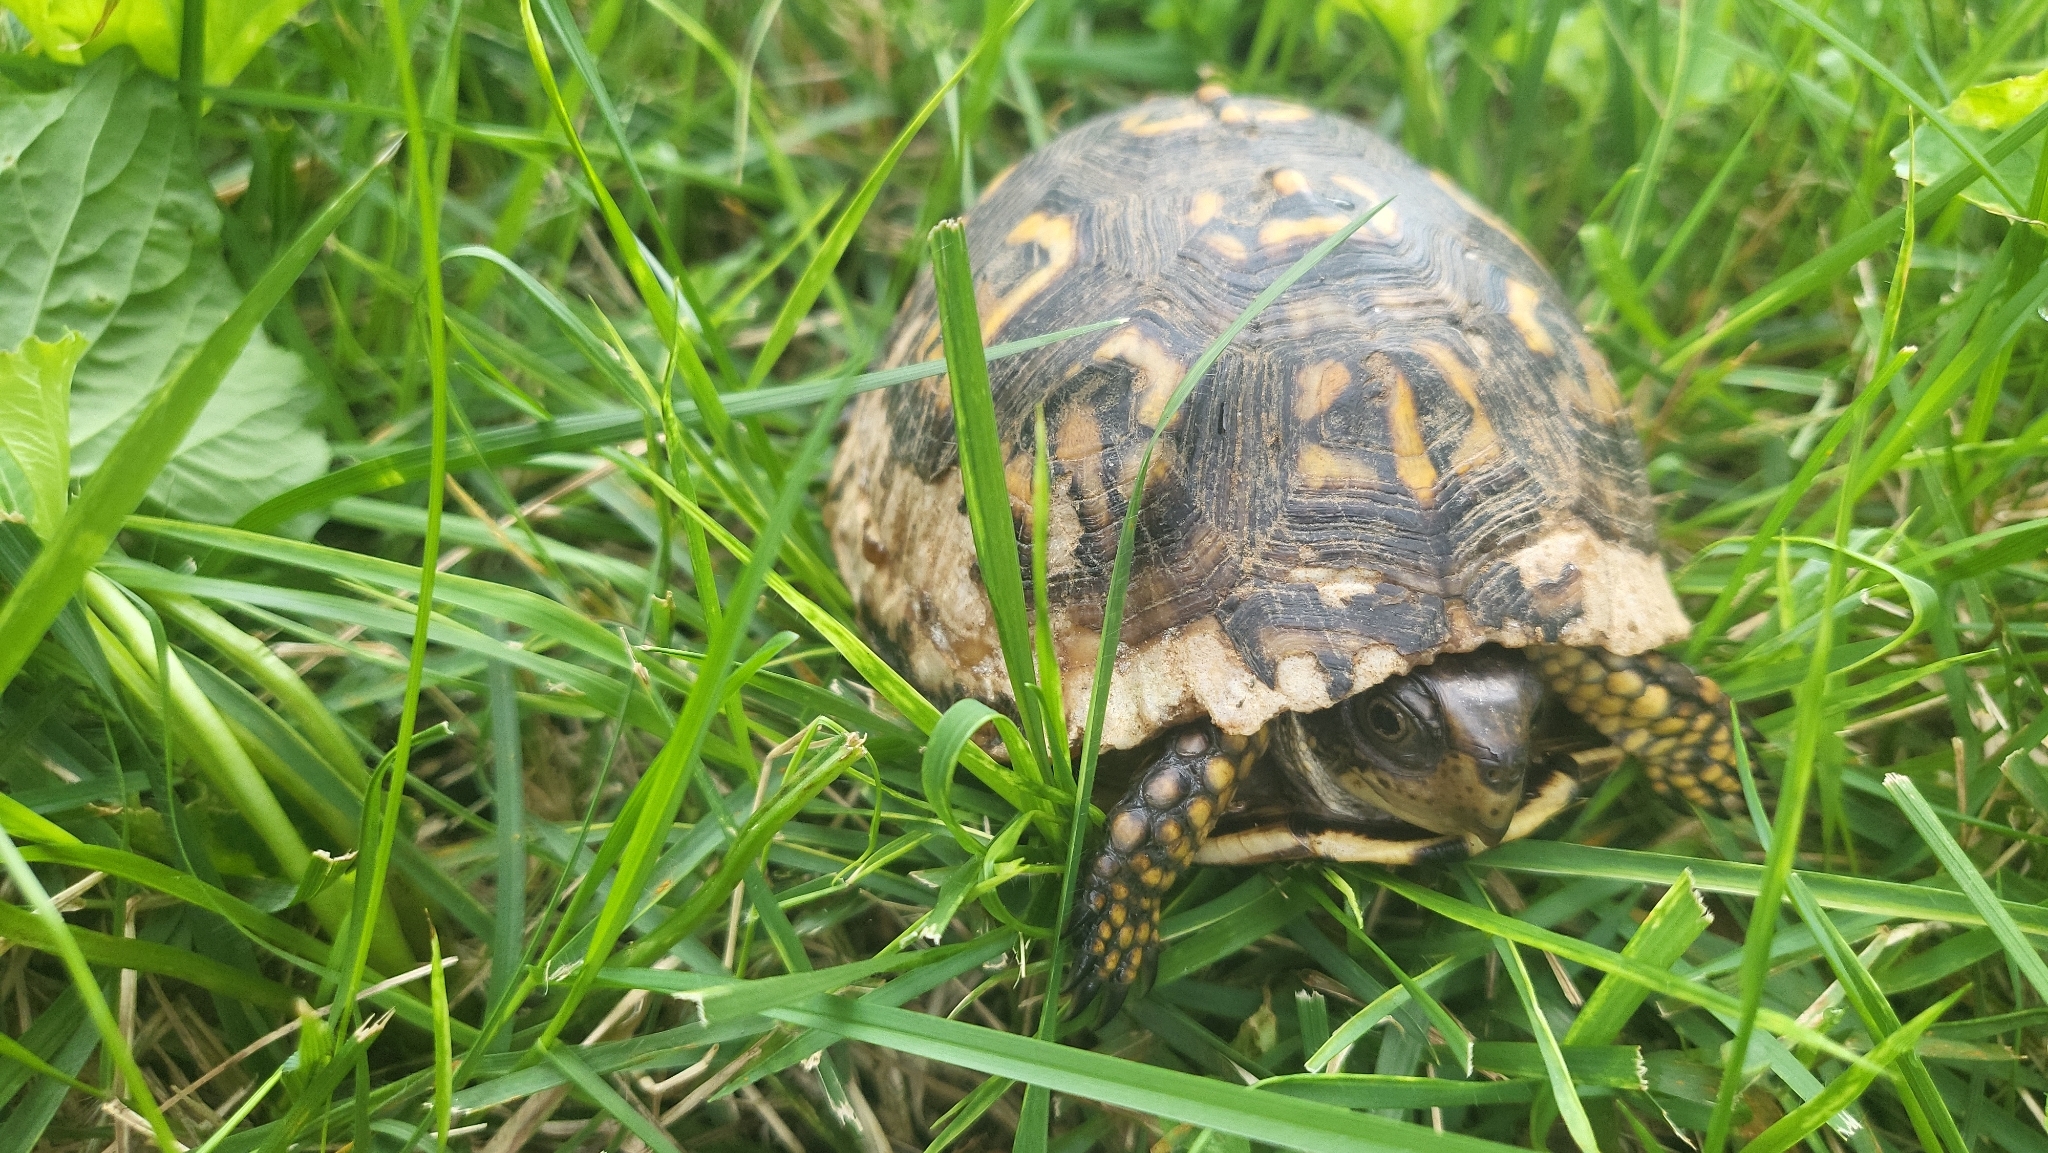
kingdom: Animalia
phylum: Chordata
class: Testudines
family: Emydidae
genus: Terrapene
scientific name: Terrapene carolina
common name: Common box turtle
